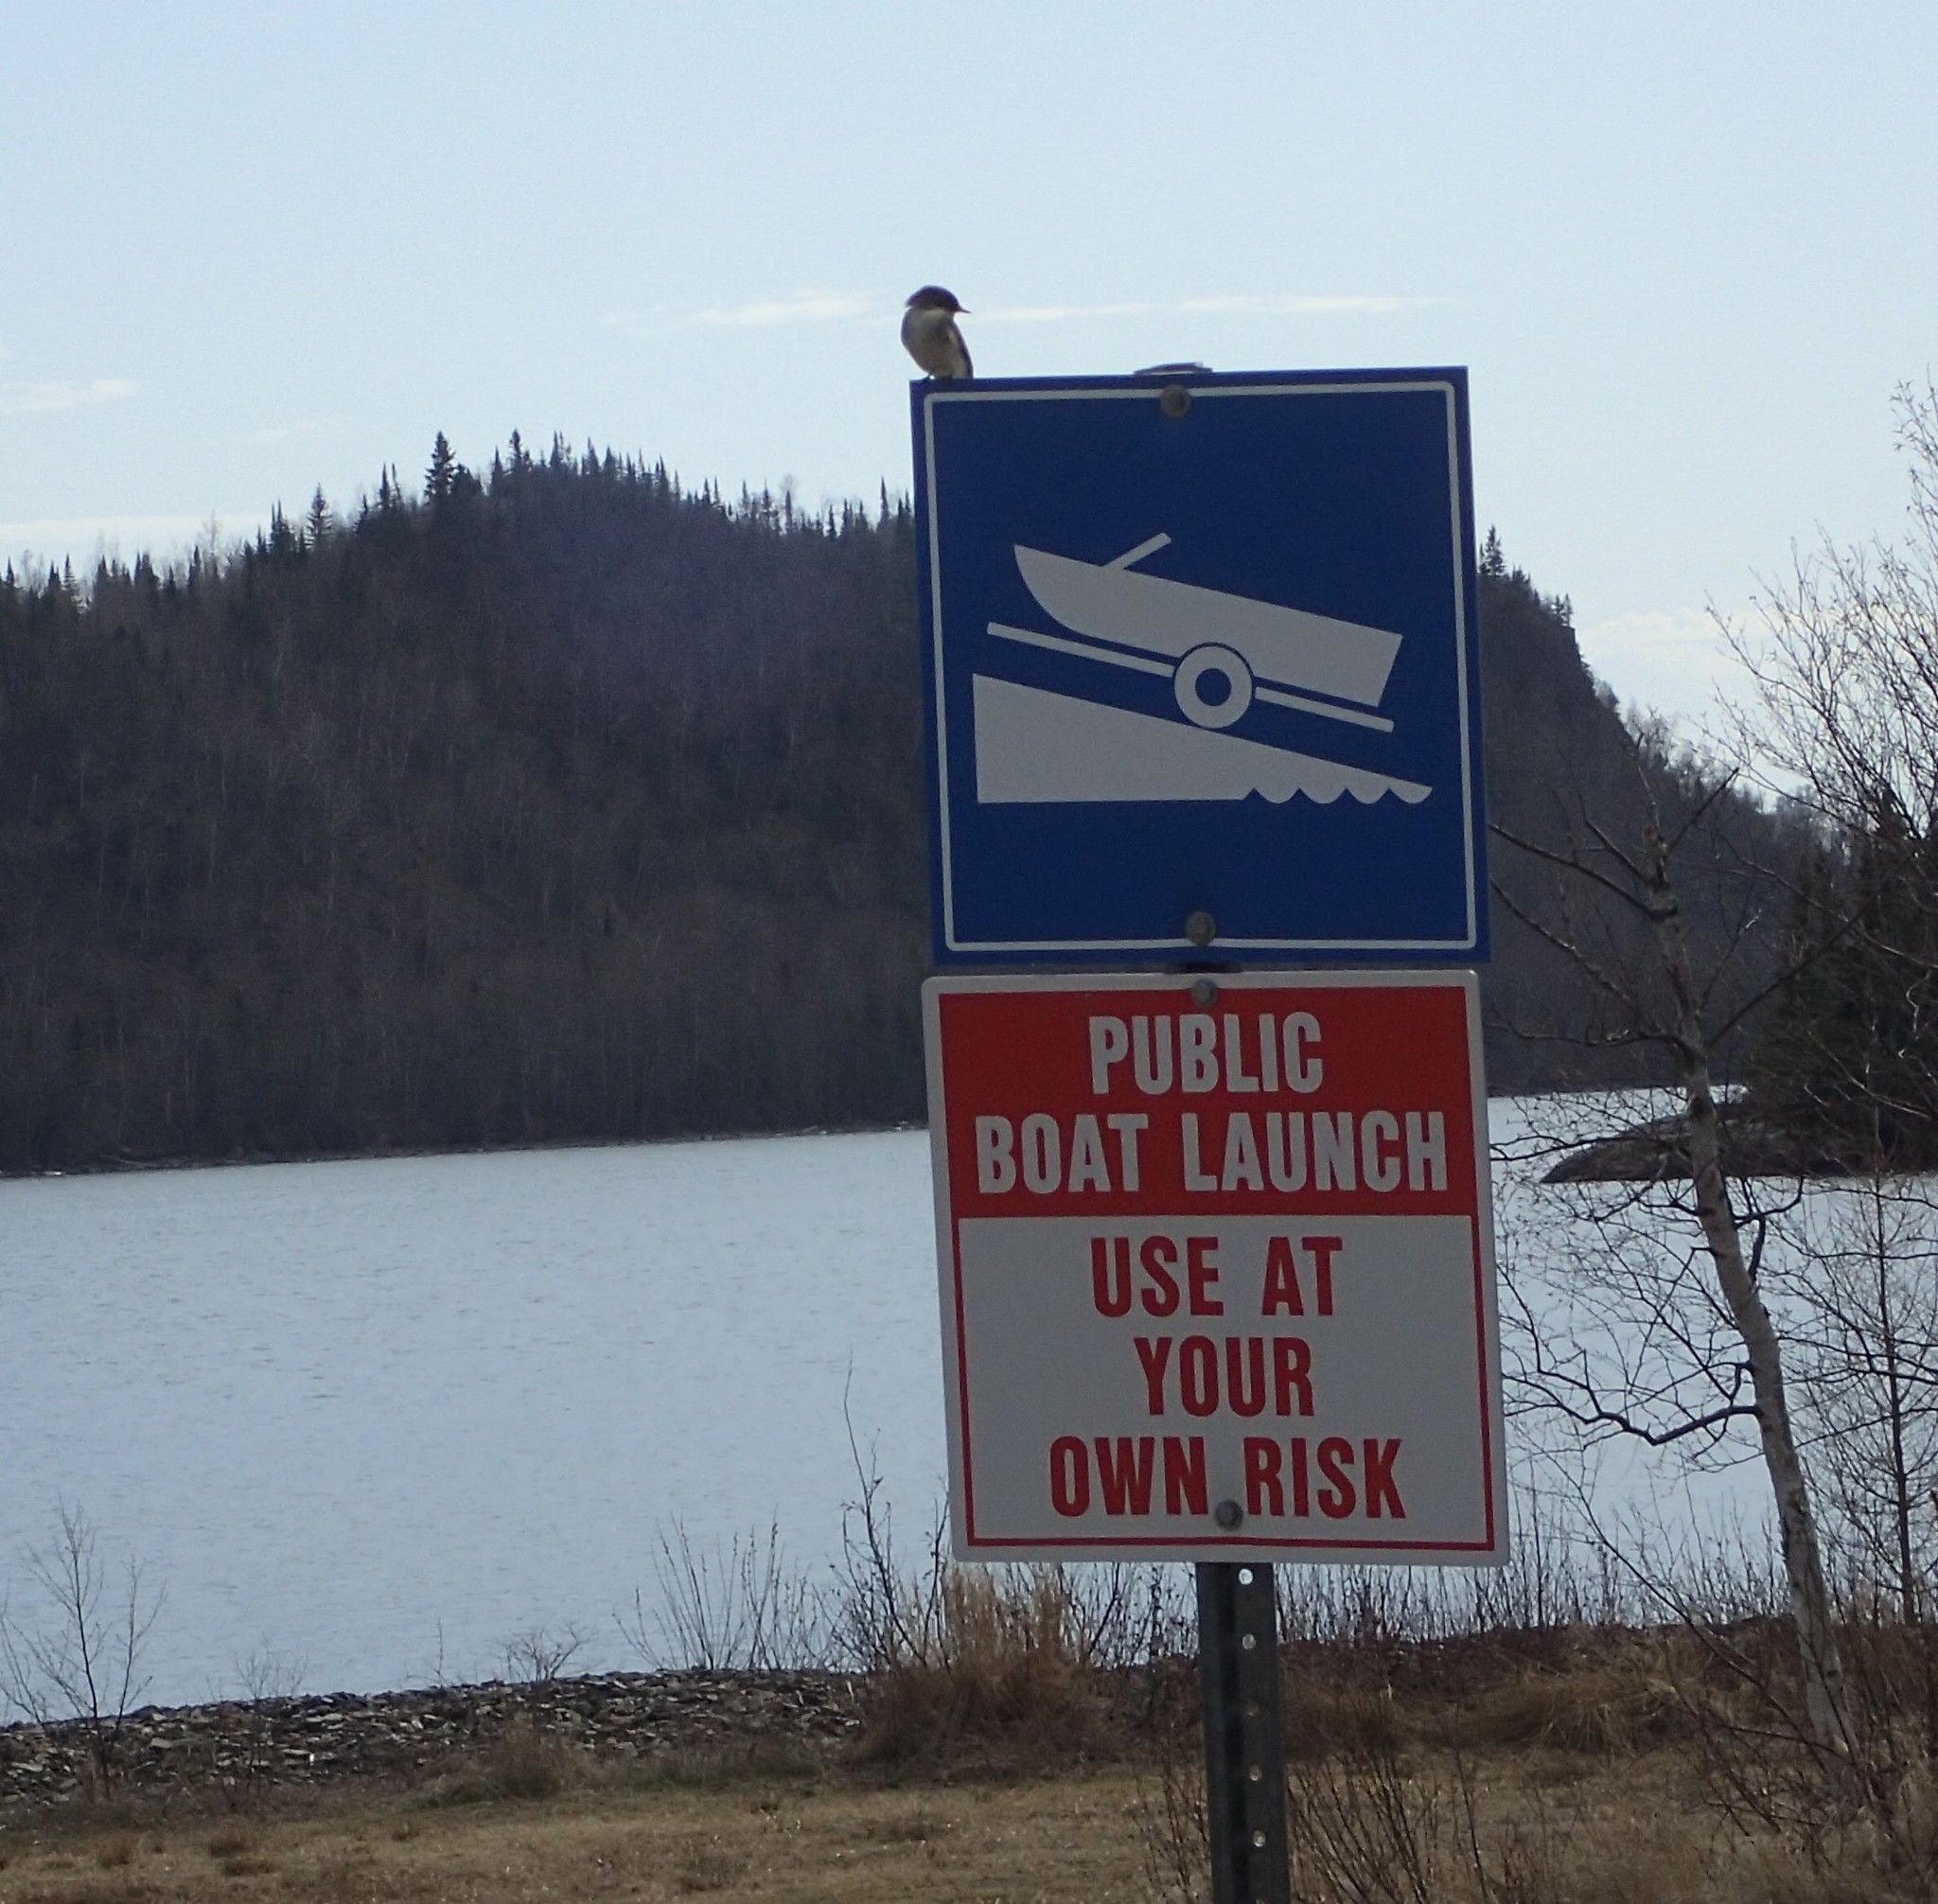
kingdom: Animalia
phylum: Chordata
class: Aves
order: Passeriformes
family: Tyrannidae
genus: Sayornis
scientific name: Sayornis phoebe
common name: Eastern phoebe
